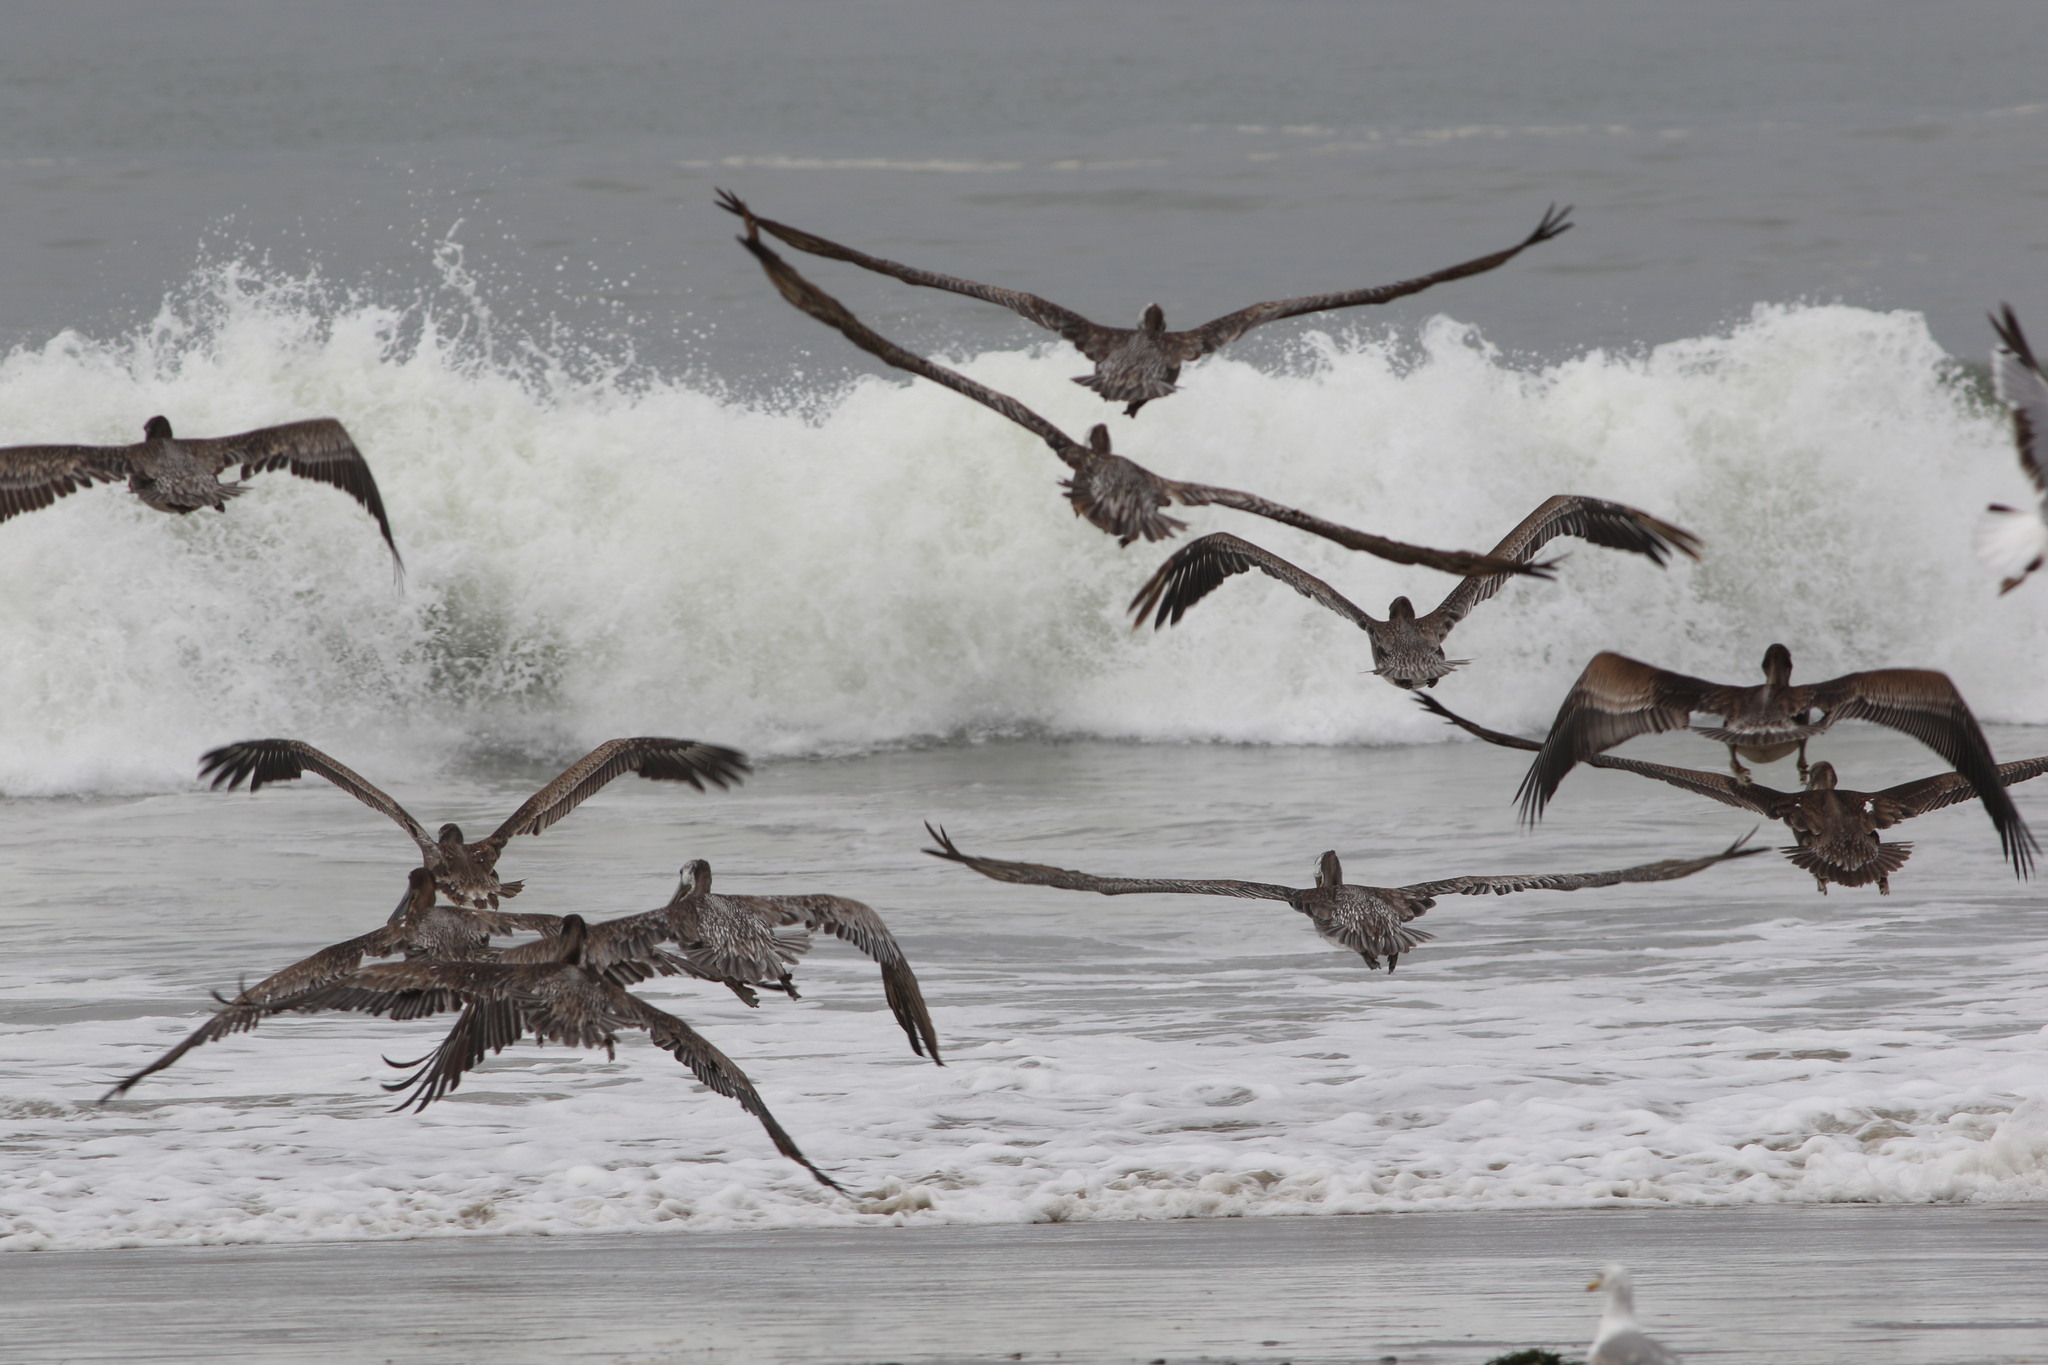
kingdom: Animalia
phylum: Chordata
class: Aves
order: Pelecaniformes
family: Pelecanidae
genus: Pelecanus
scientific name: Pelecanus occidentalis
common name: Brown pelican
